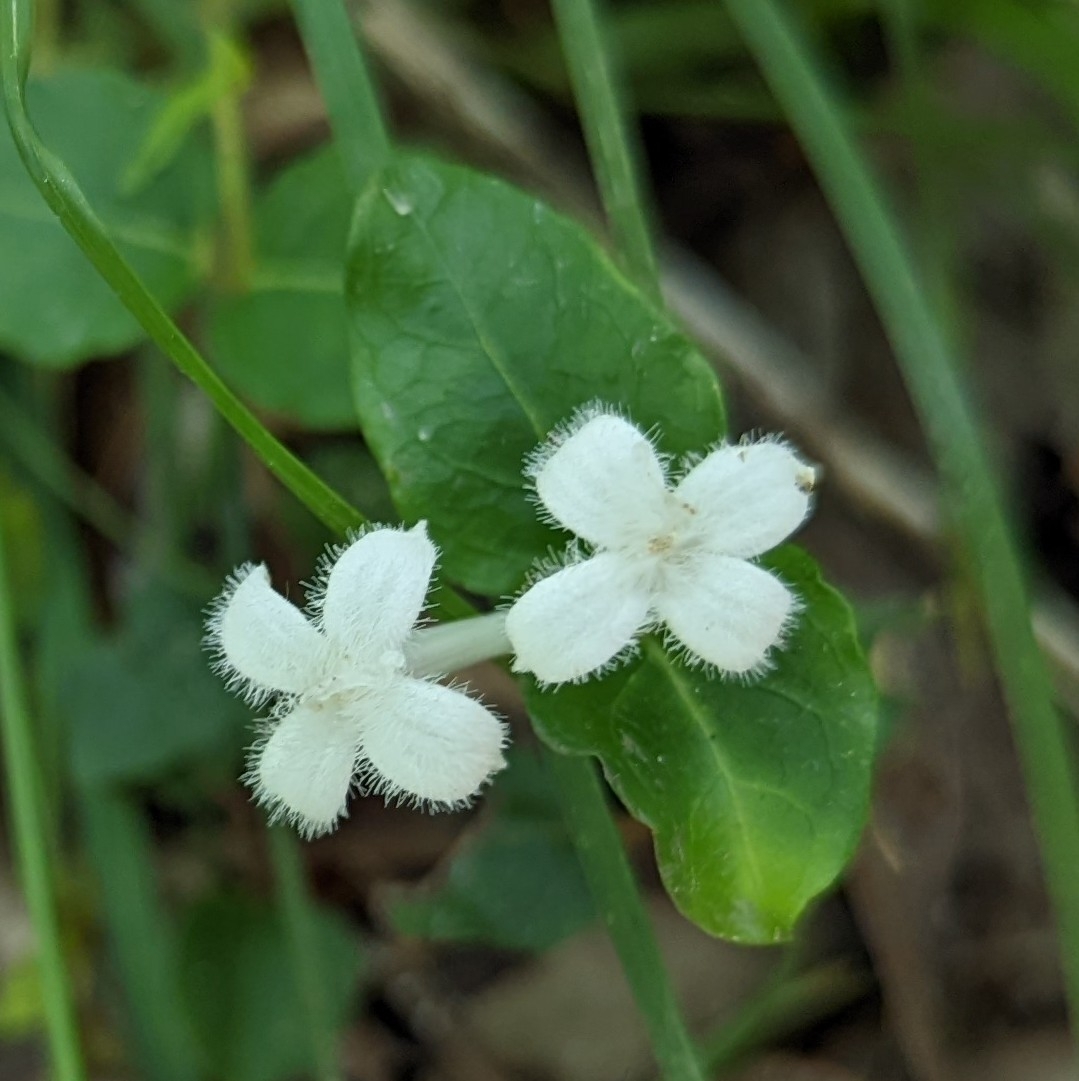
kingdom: Plantae
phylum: Tracheophyta
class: Magnoliopsida
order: Gentianales
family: Rubiaceae
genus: Mitchella
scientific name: Mitchella repens
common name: Partridge-berry
